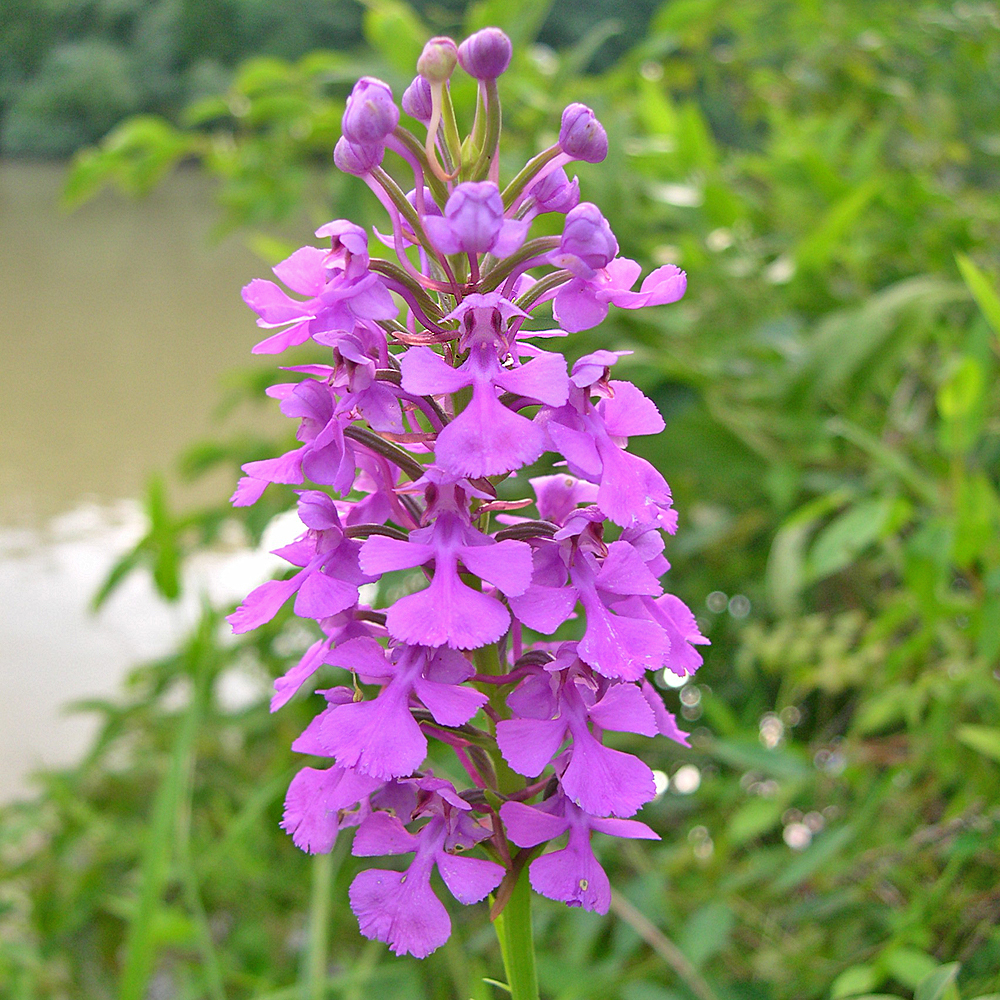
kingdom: Plantae
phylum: Tracheophyta
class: Liliopsida
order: Asparagales
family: Orchidaceae
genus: Platanthera
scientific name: Platanthera peramoena
